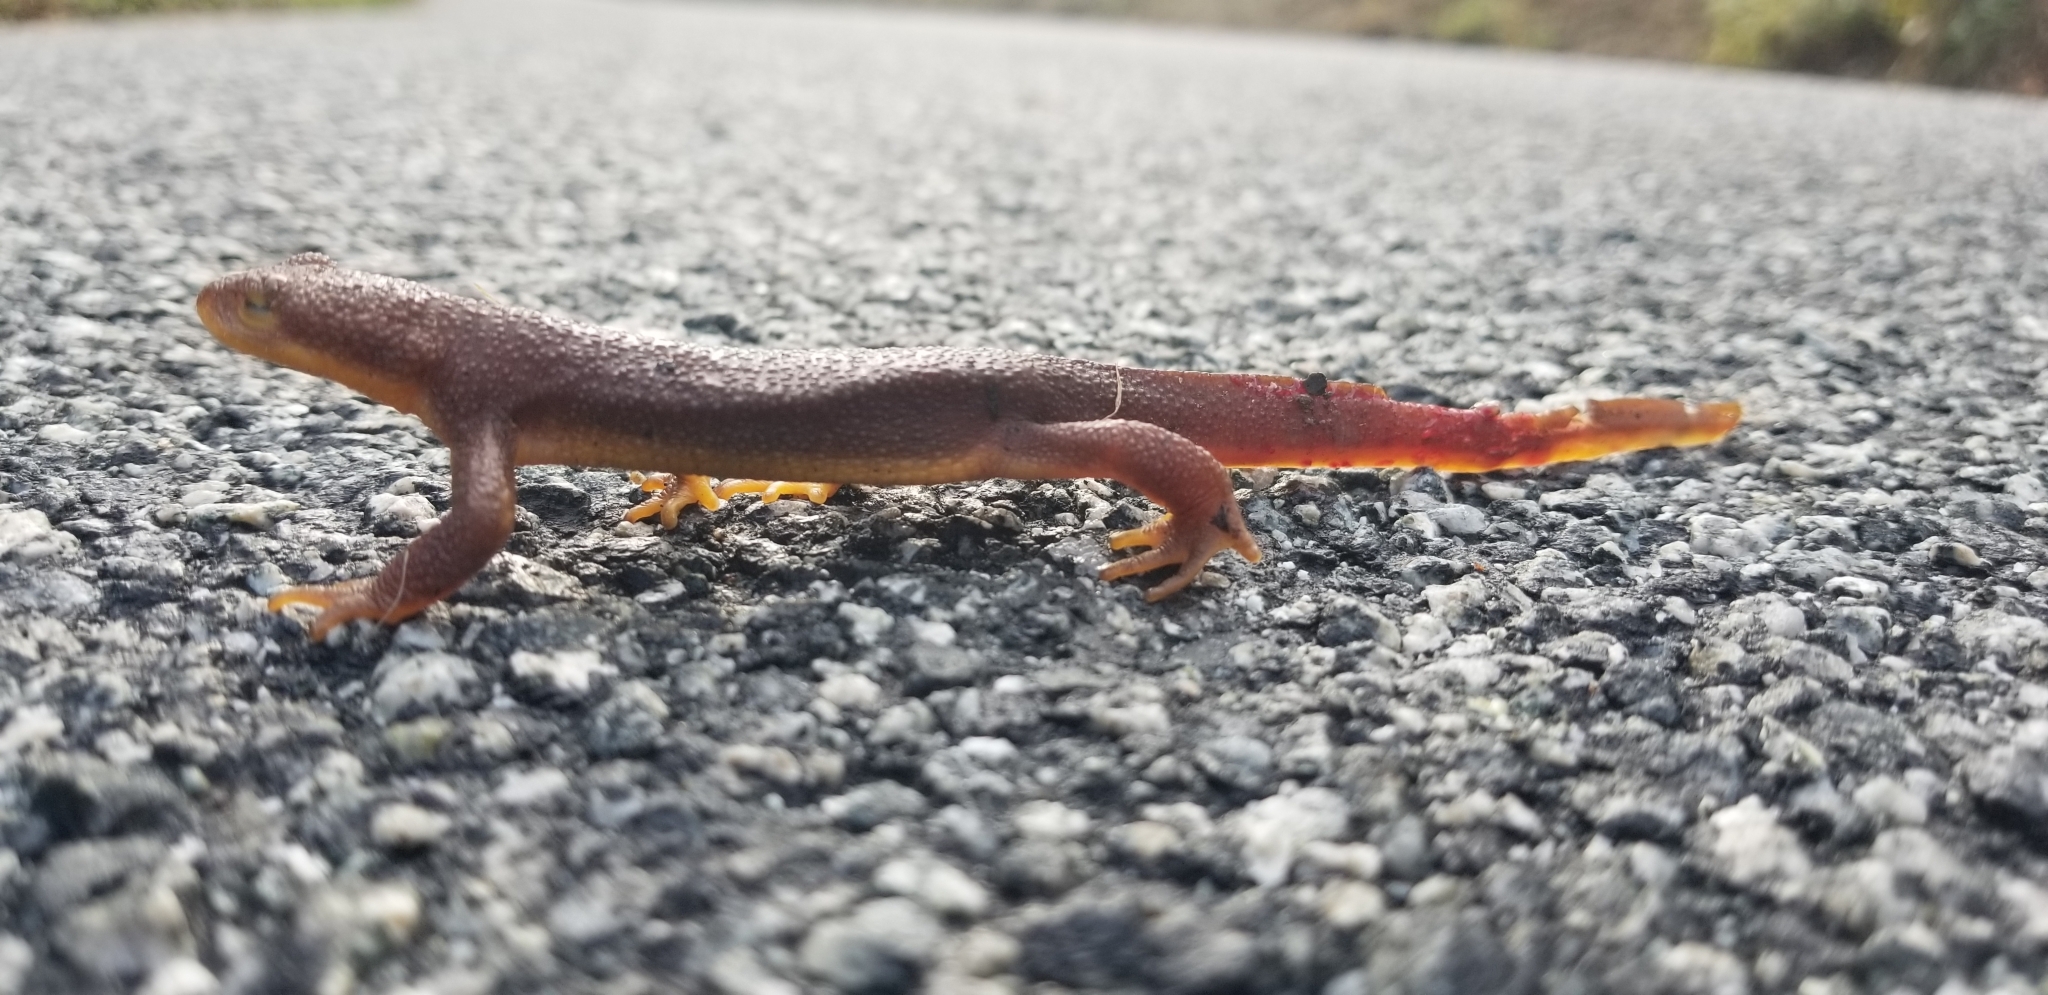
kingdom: Animalia
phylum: Chordata
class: Amphibia
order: Caudata
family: Salamandridae
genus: Taricha
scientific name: Taricha torosa
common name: California newt
